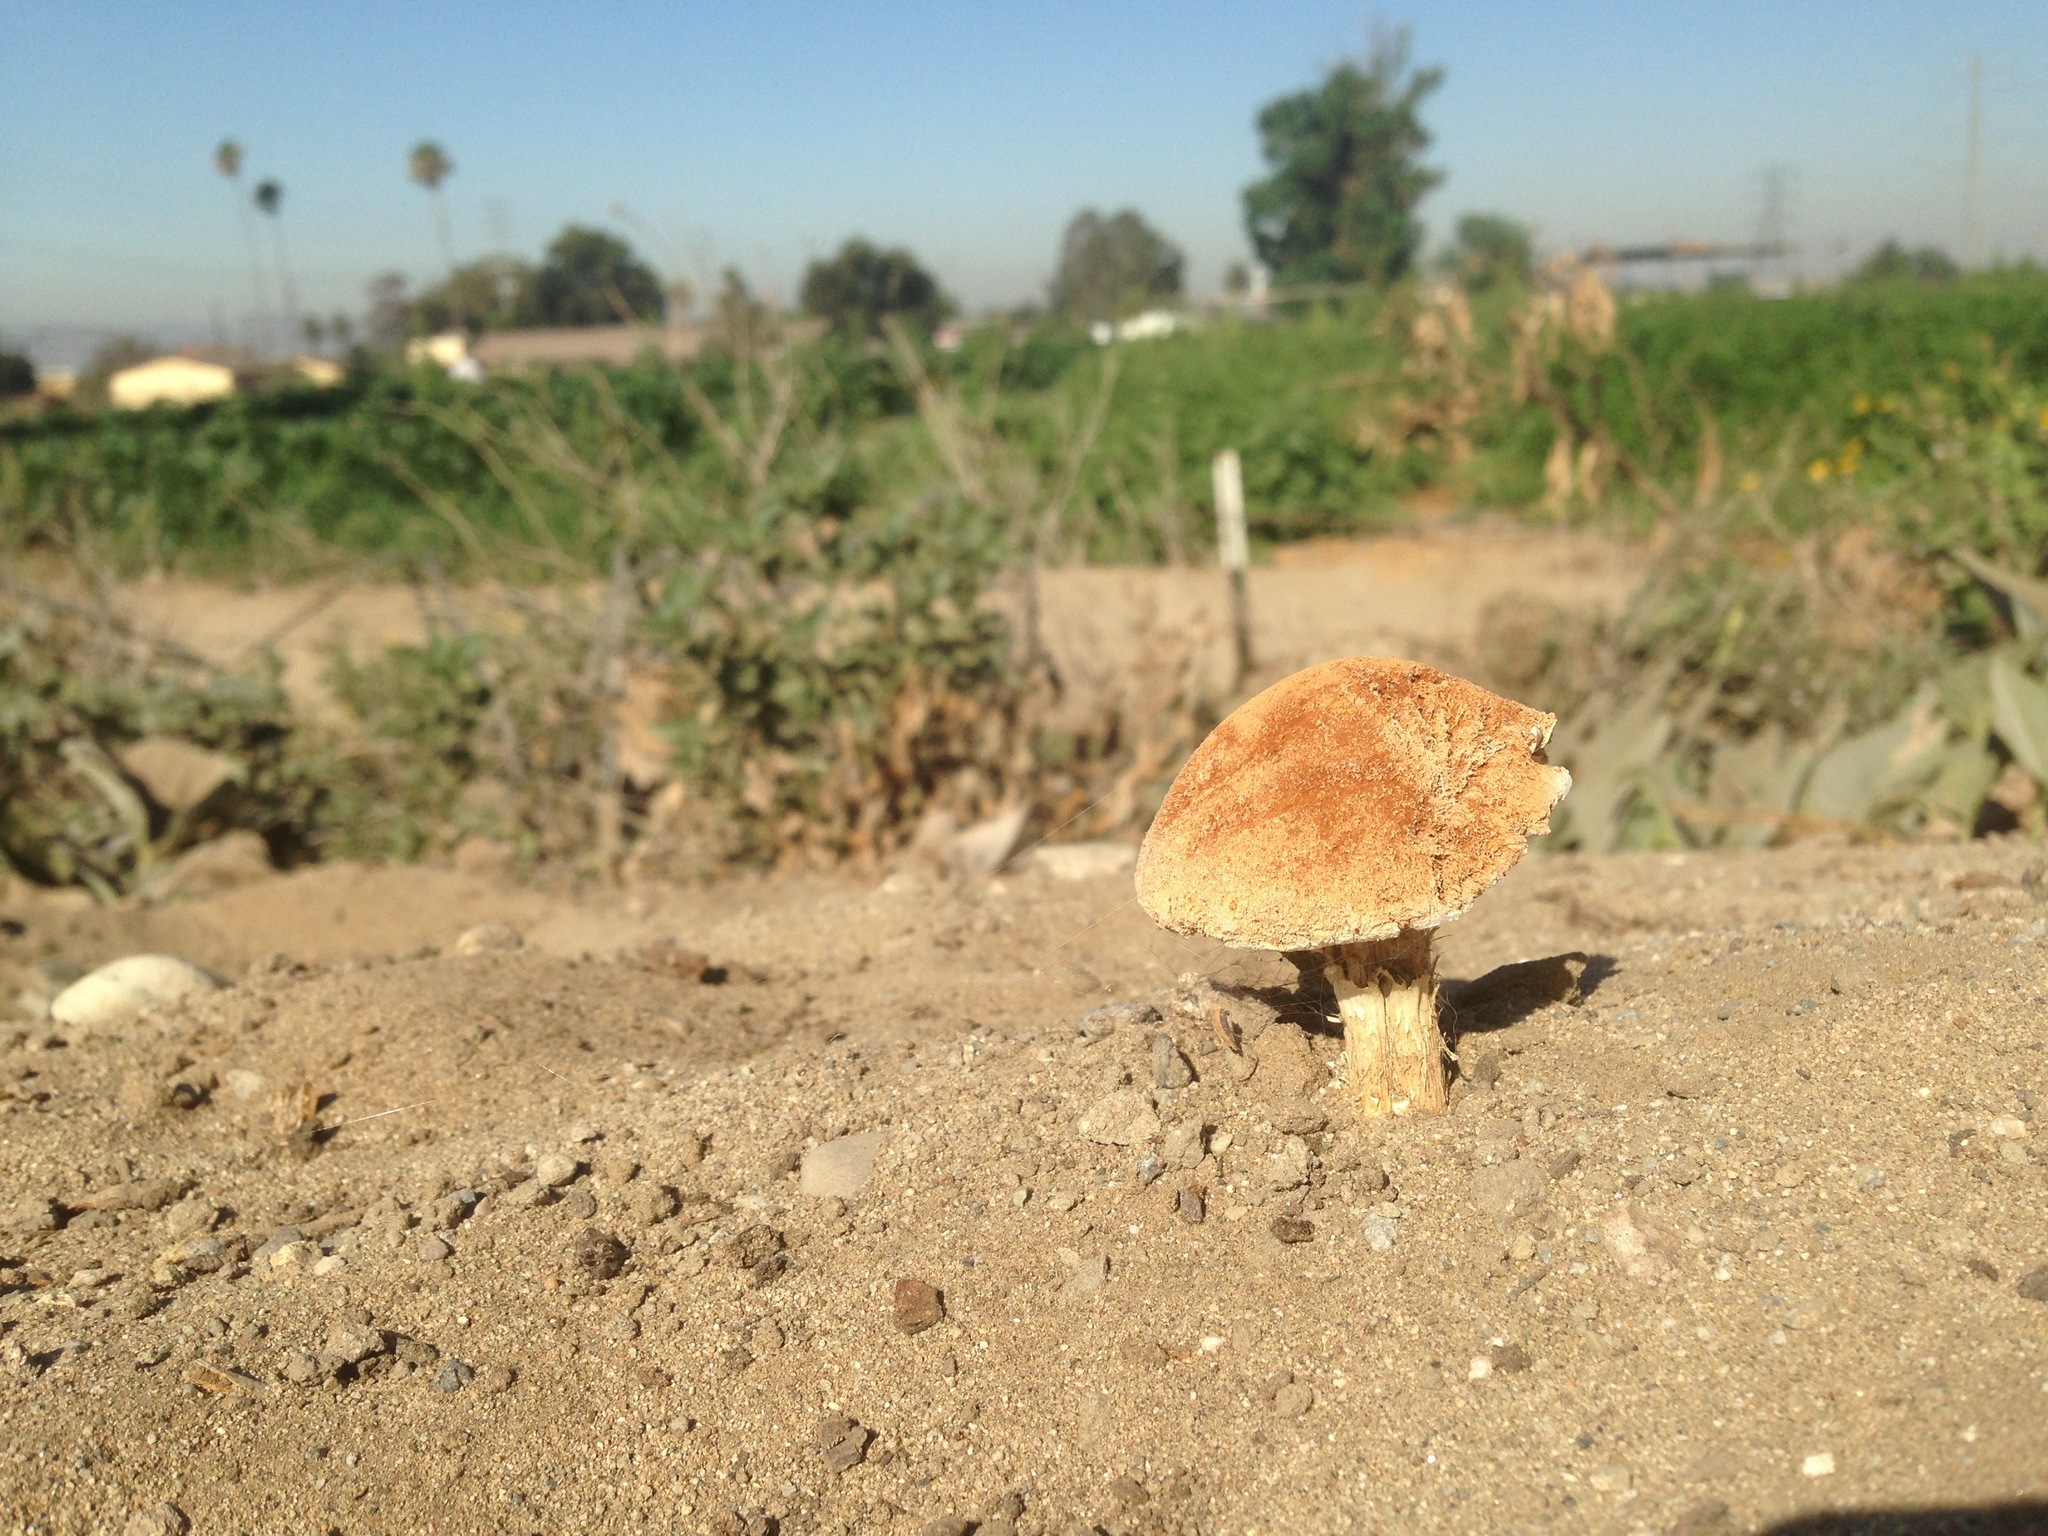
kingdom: Fungi
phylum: Basidiomycota
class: Agaricomycetes
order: Agaricales
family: Agaricaceae
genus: Battarrea
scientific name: Battarrea phalloides
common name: Sandy stiltball
